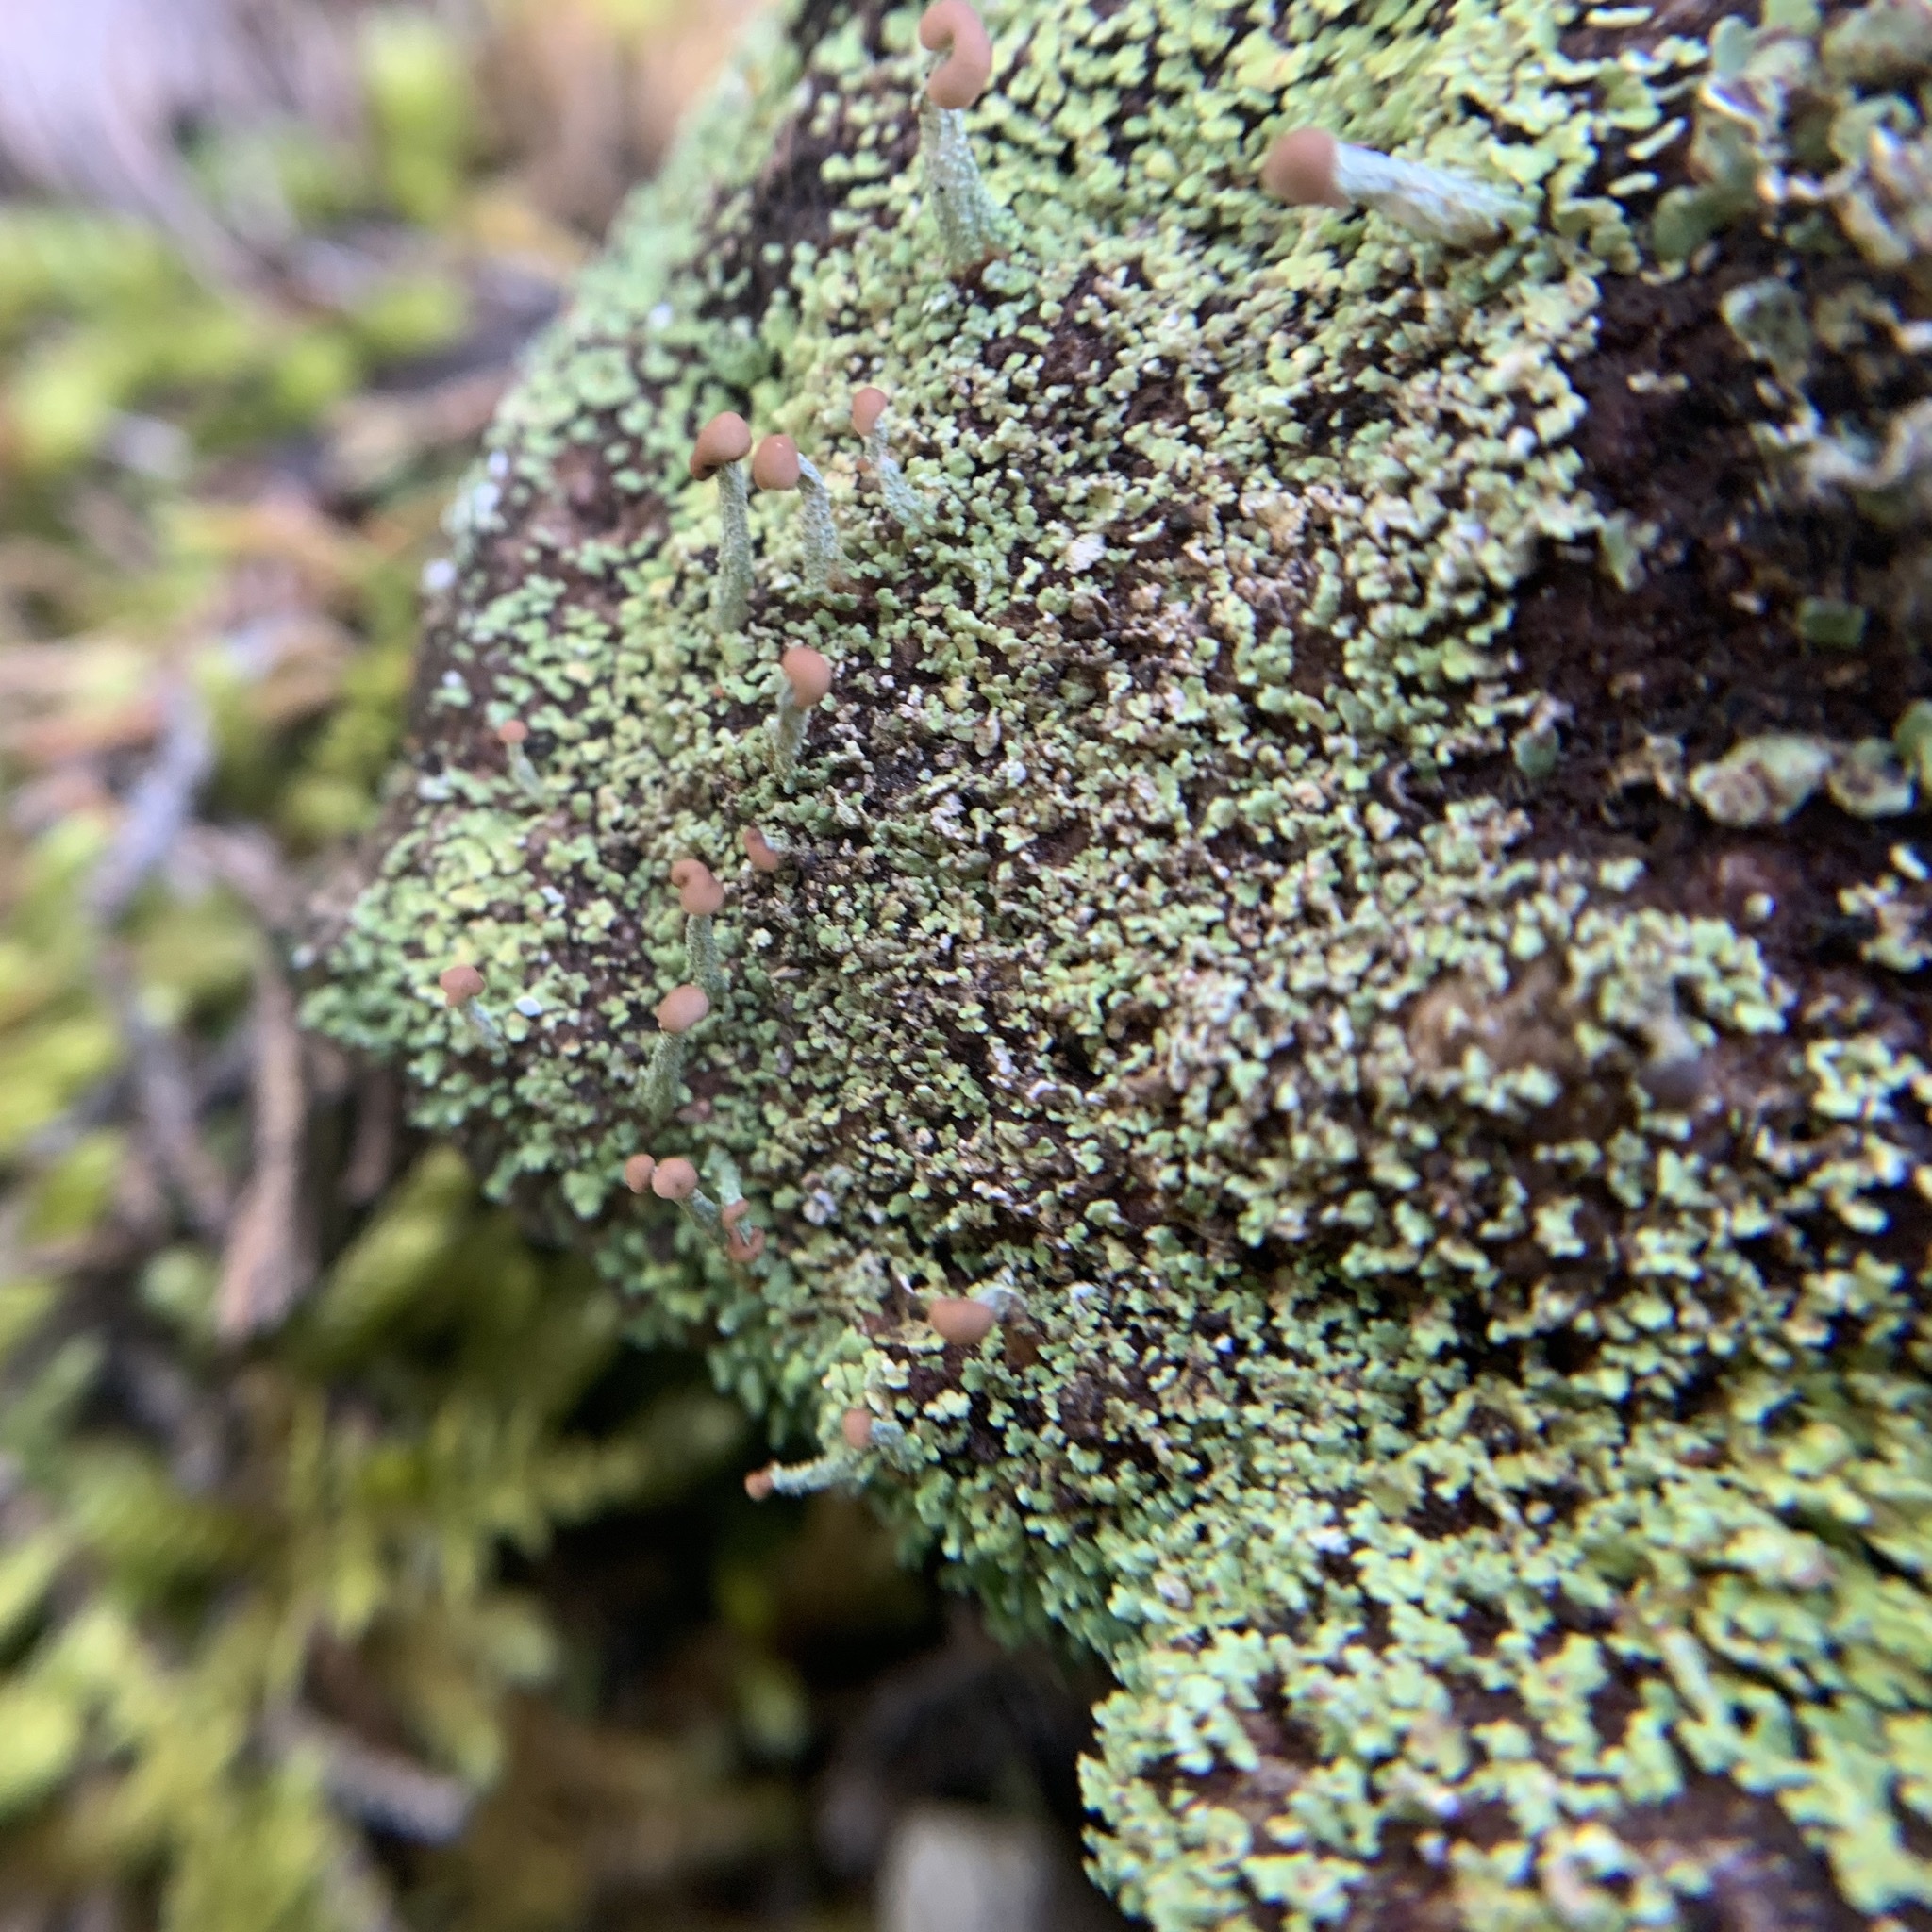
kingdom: Fungi
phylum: Ascomycota
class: Lecanoromycetes
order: Lecanorales
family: Cladoniaceae
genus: Cladonia
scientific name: Cladonia peziziformis
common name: Cup lichen
